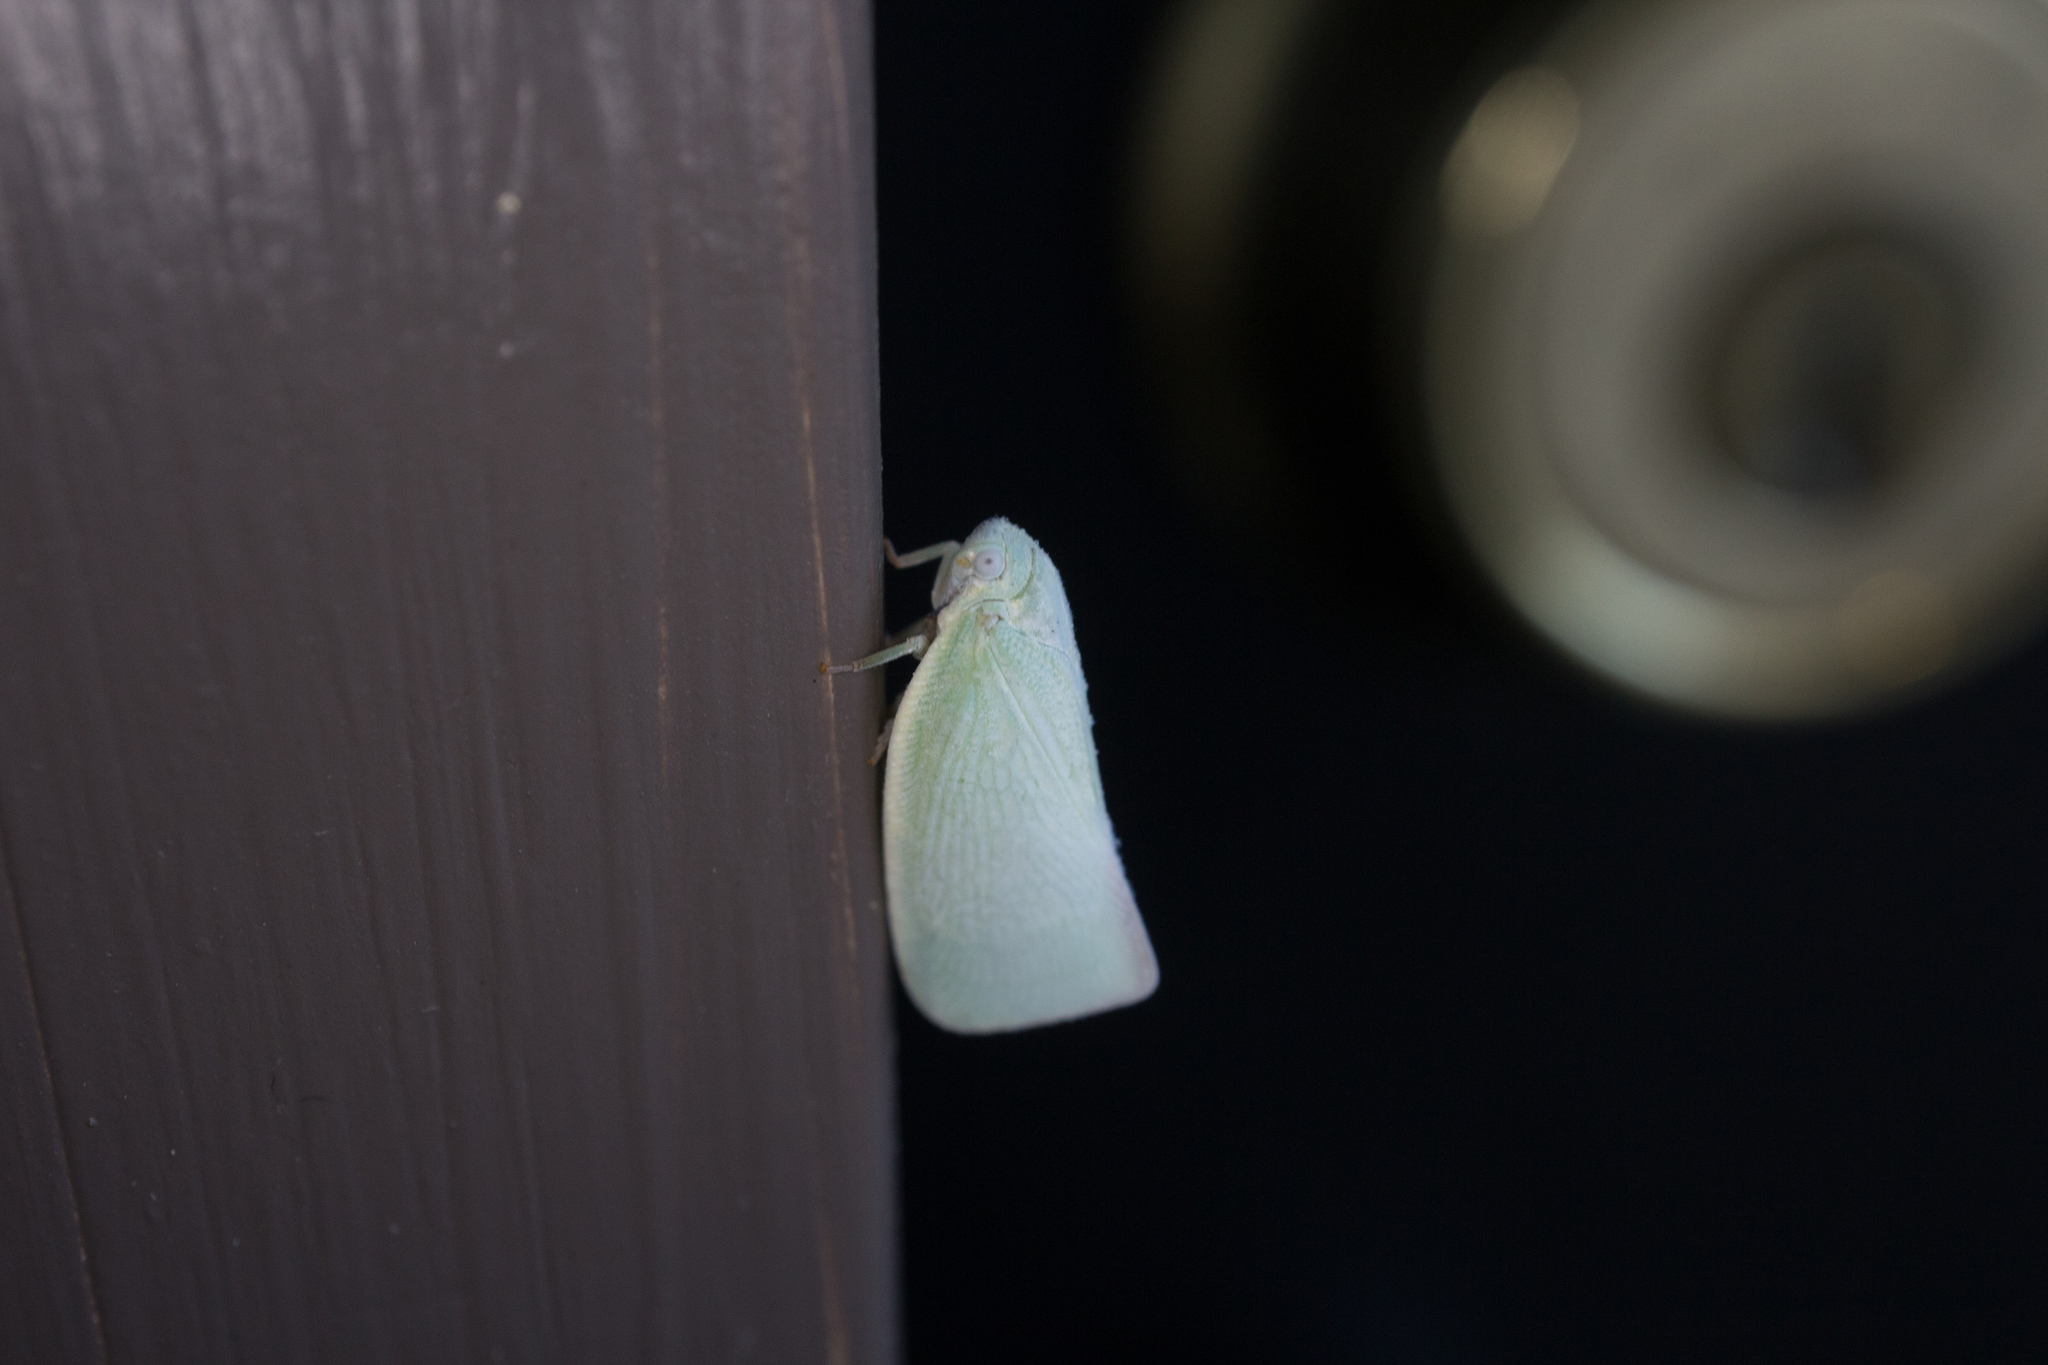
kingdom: Animalia
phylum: Arthropoda
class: Insecta
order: Hemiptera
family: Flatidae
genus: Flatormenis
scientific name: Flatormenis proxima
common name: Northern flatid planthopper
